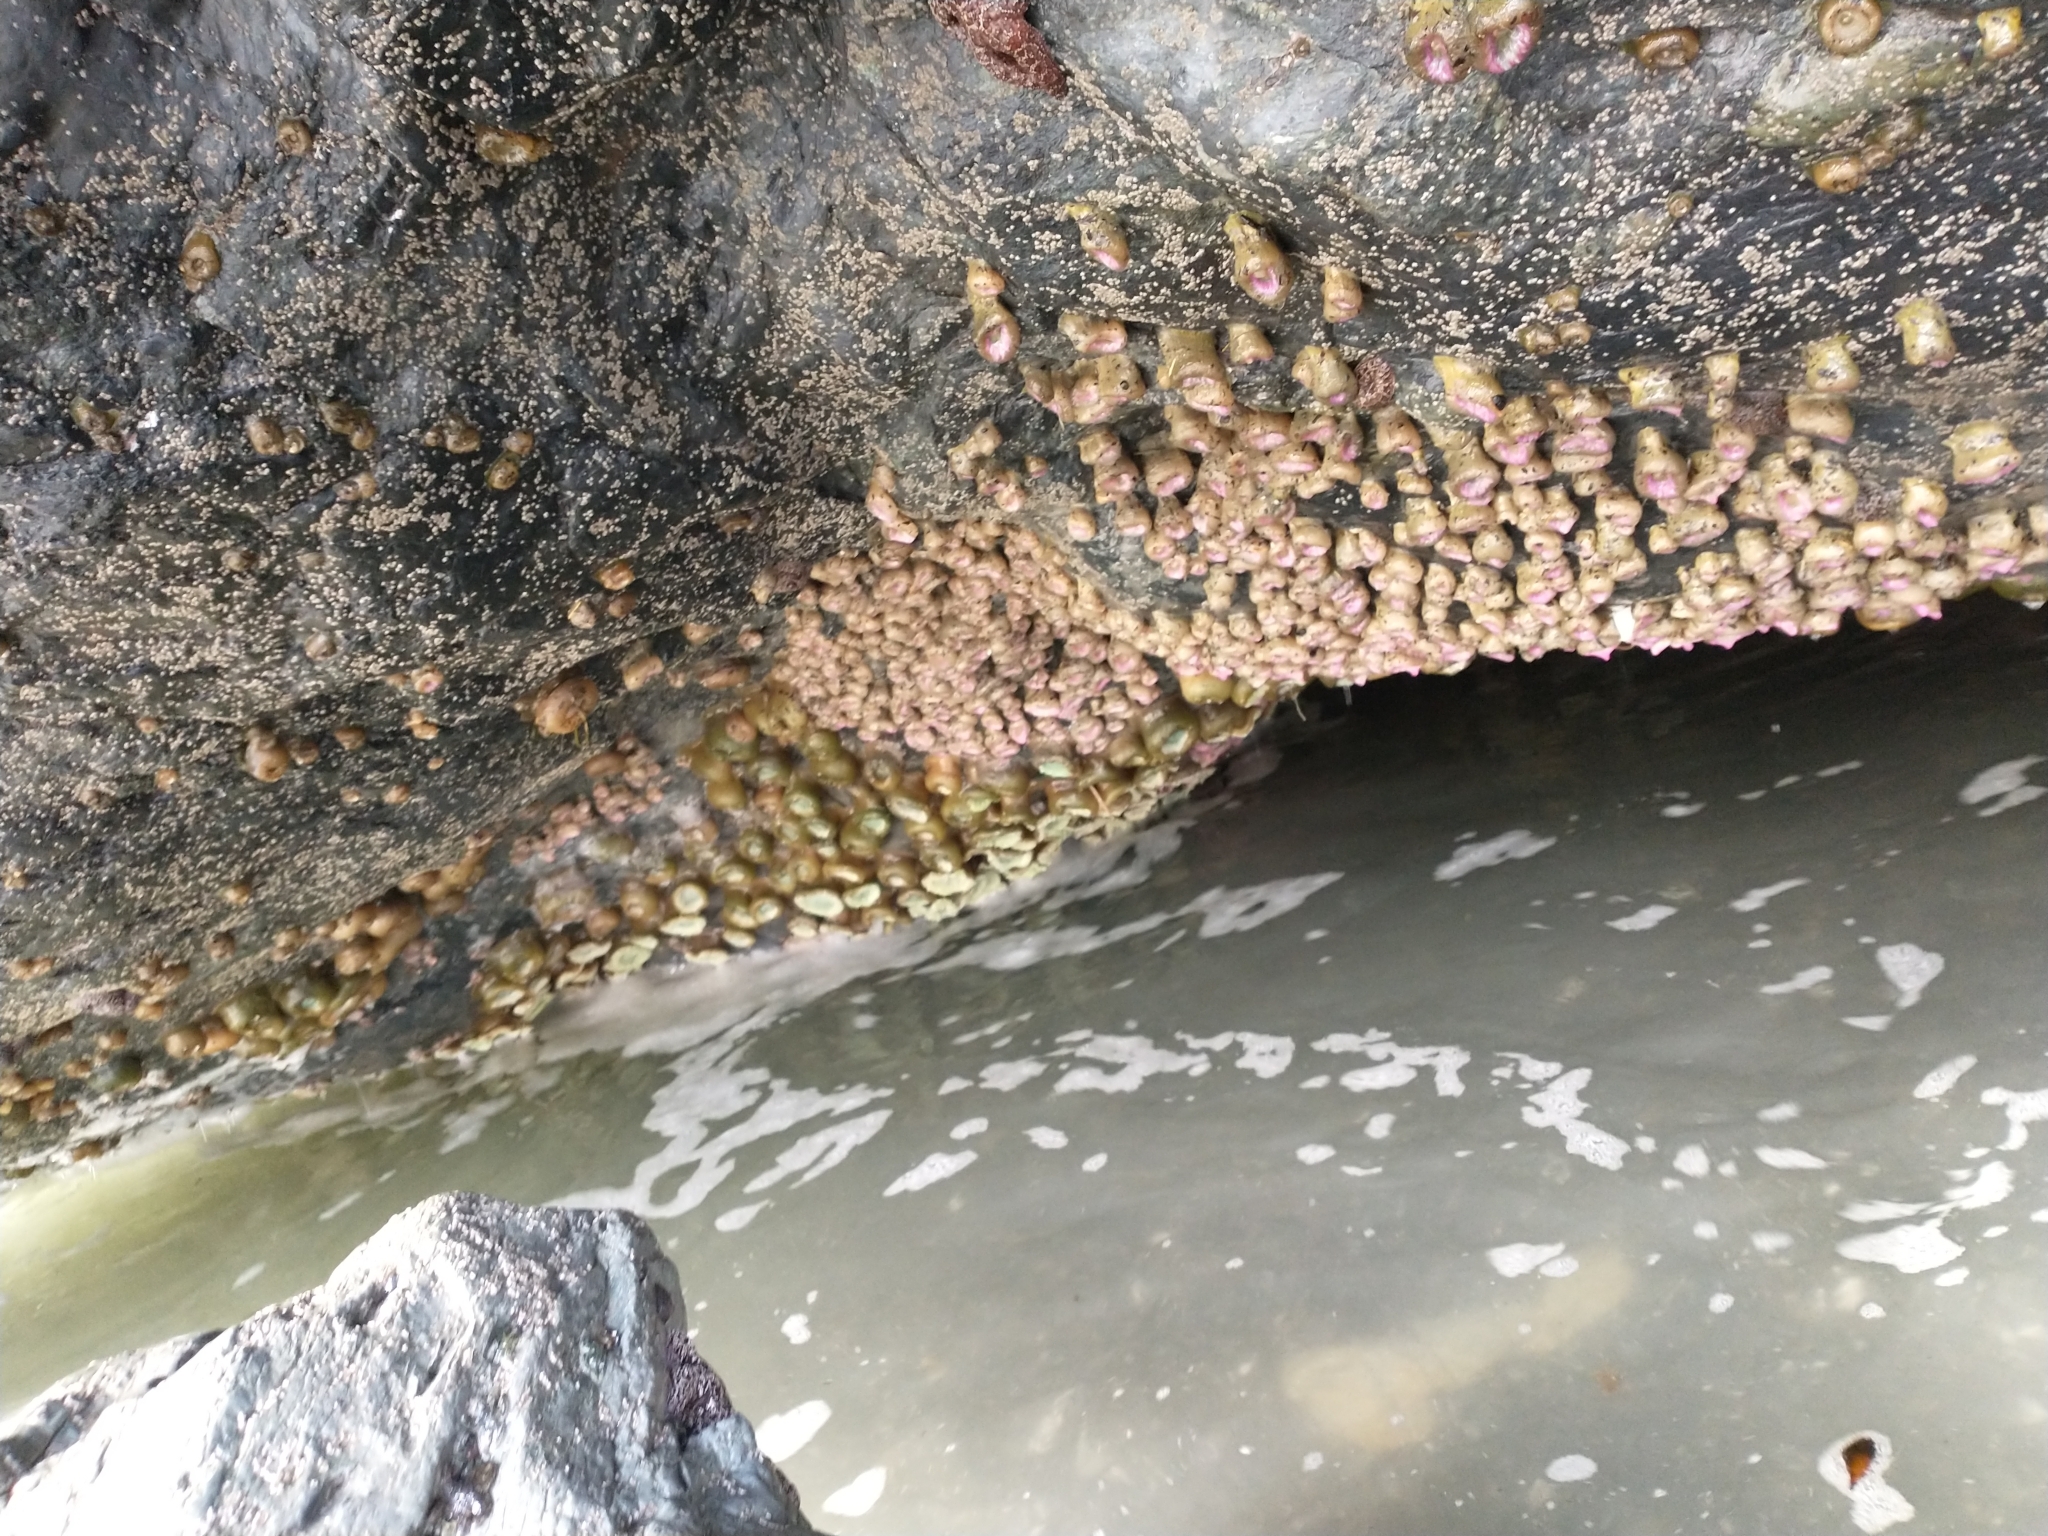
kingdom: Animalia
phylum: Cnidaria
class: Anthozoa
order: Actiniaria
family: Actiniidae
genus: Anthopleura
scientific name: Anthopleura elegantissima
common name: Clonal anemone
